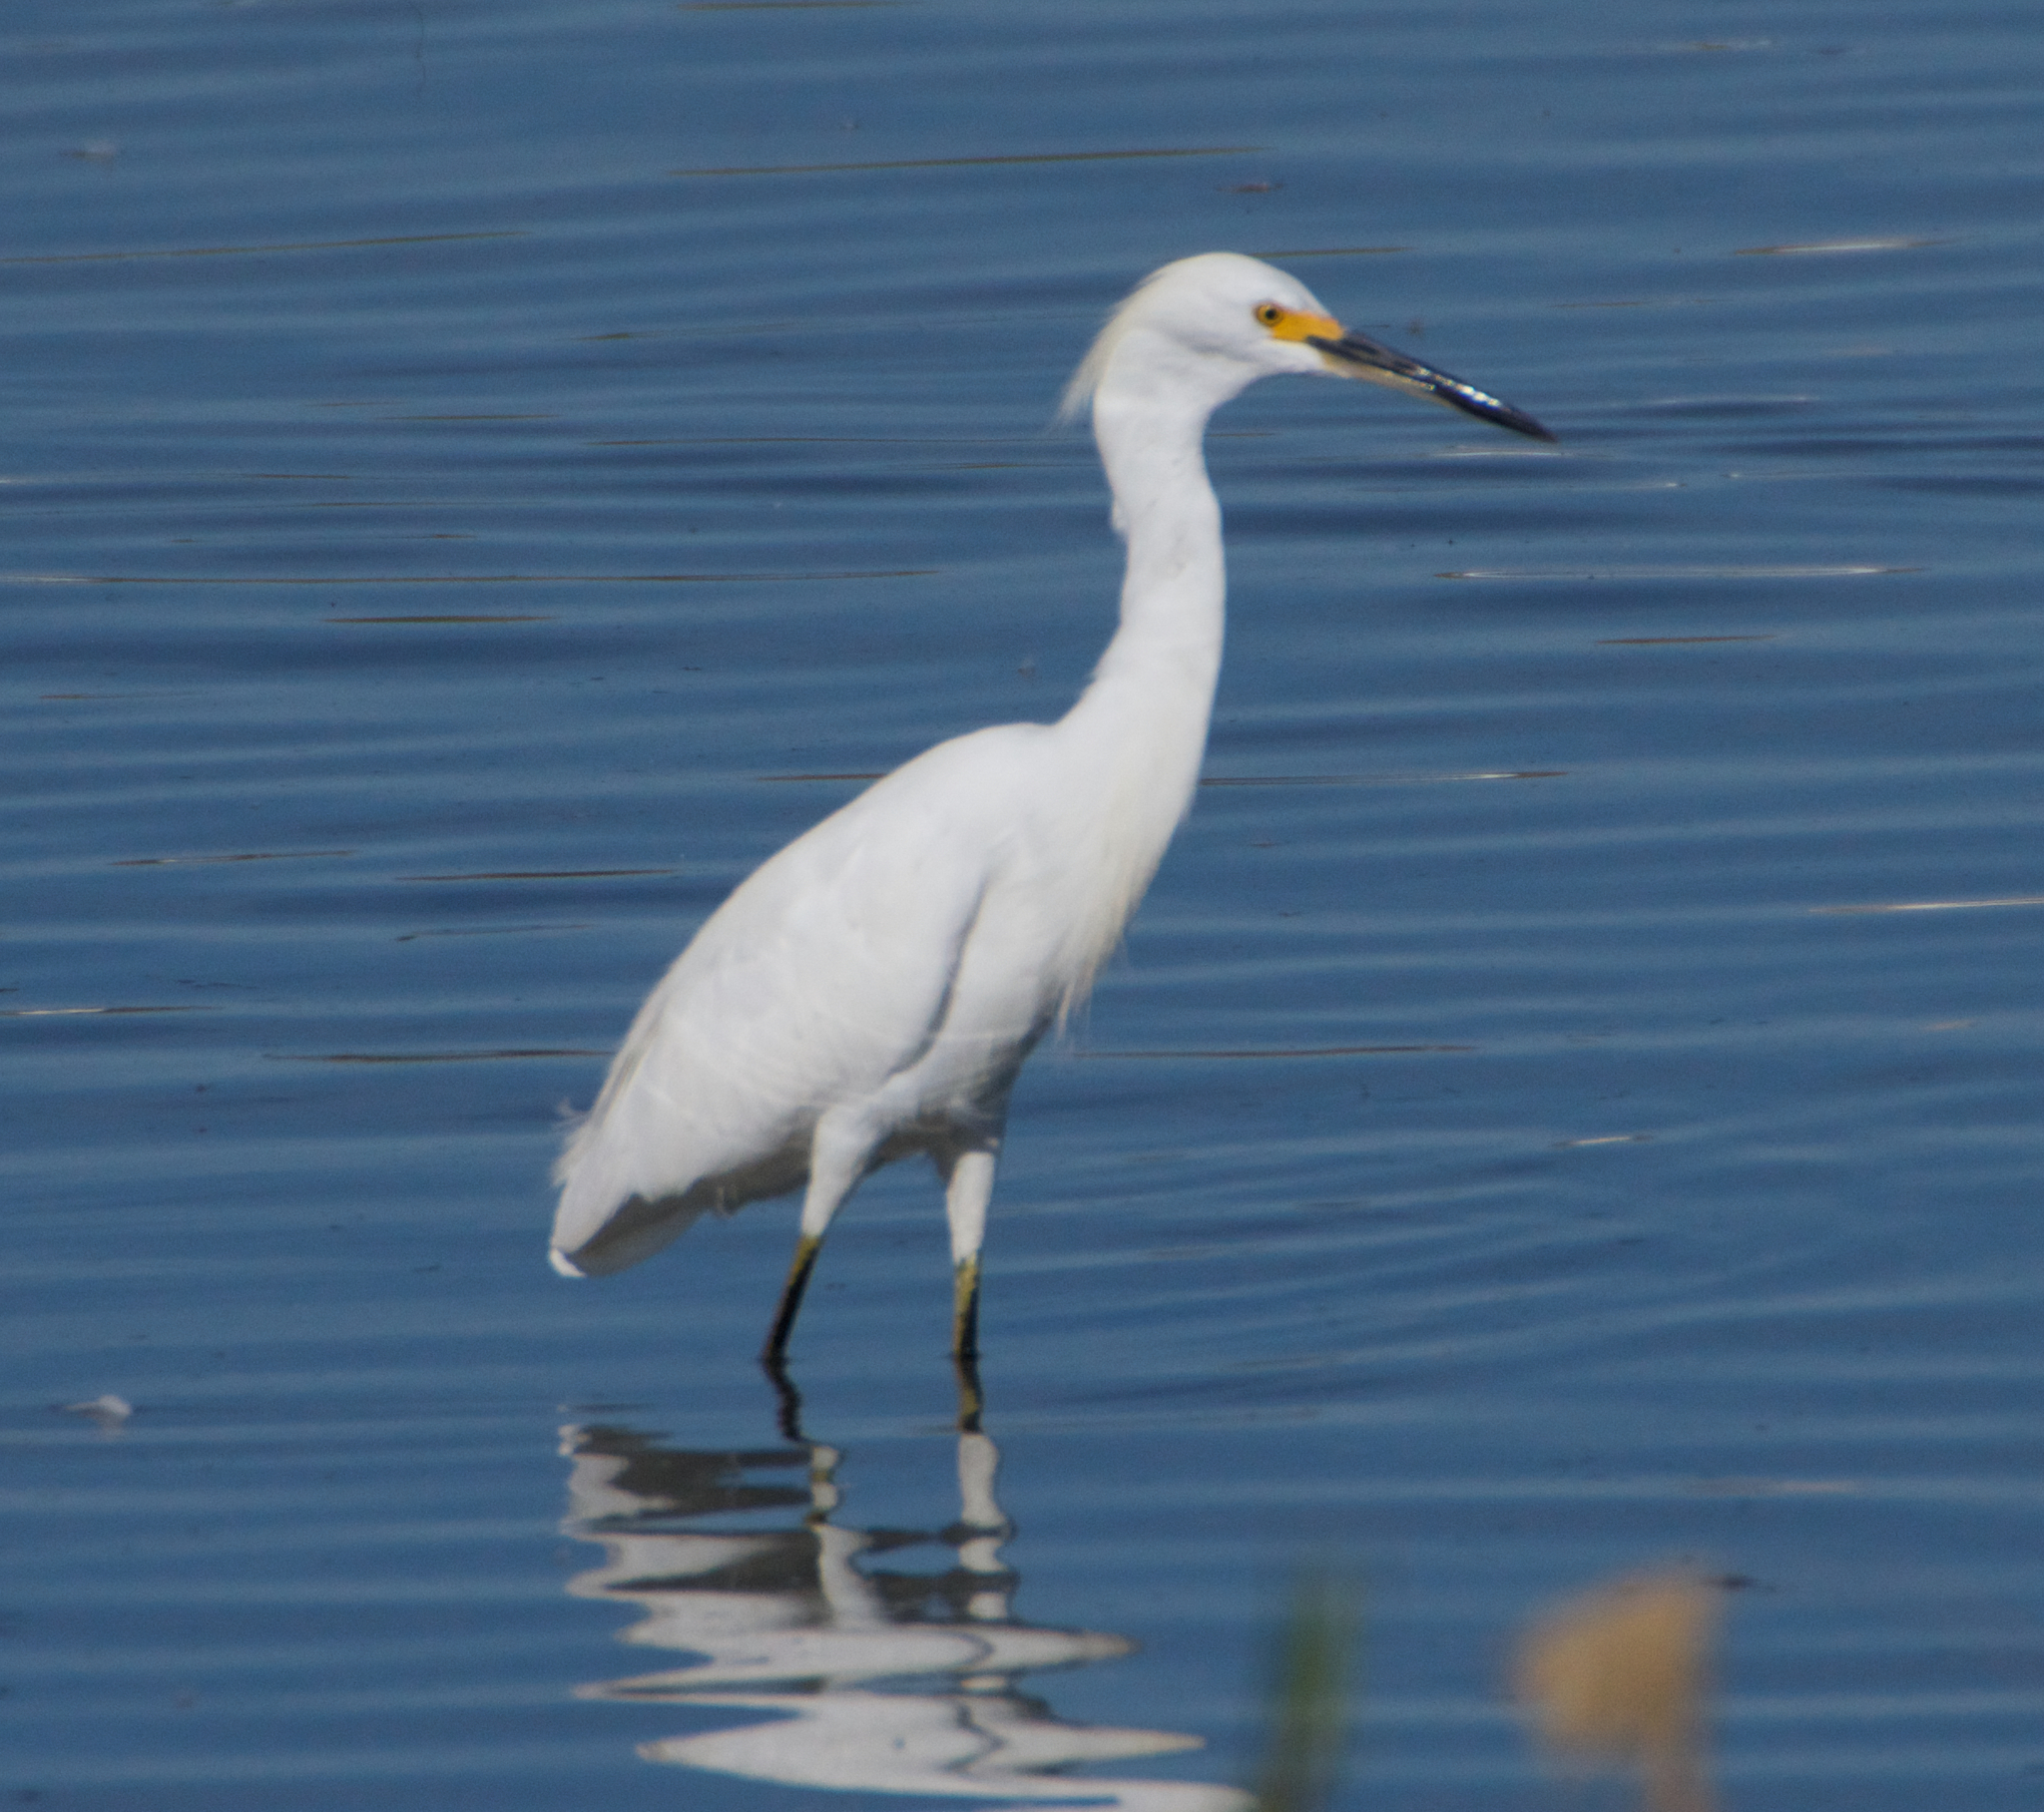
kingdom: Animalia
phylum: Chordata
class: Aves
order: Pelecaniformes
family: Ardeidae
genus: Egretta
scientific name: Egretta thula
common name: Snowy egret
